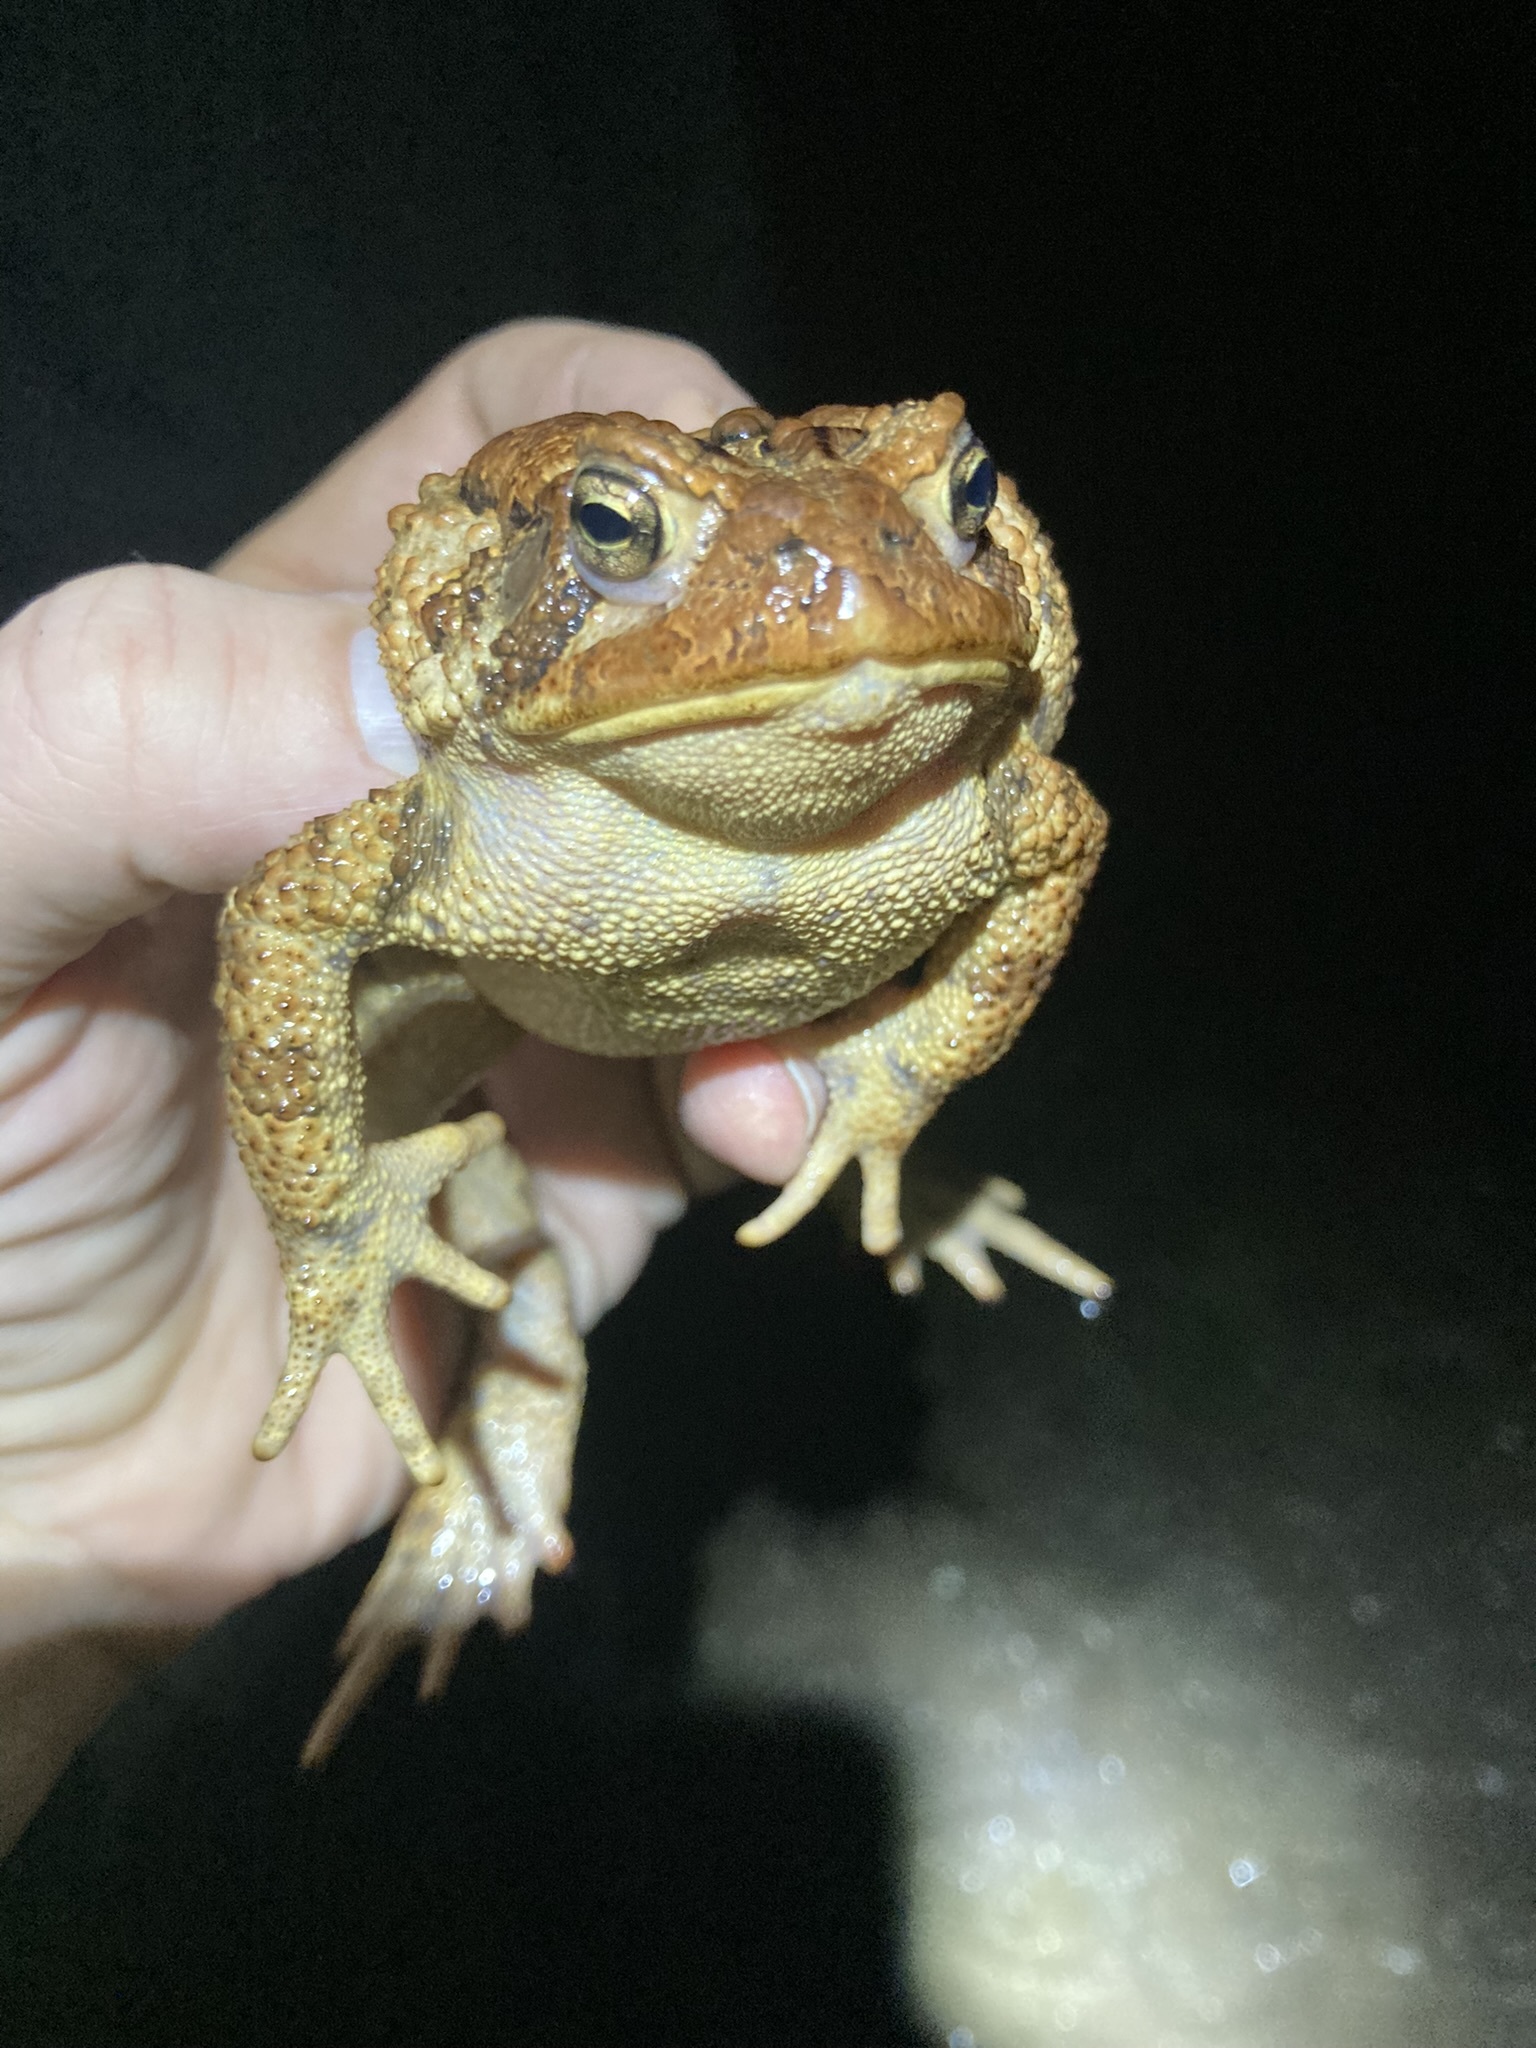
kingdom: Animalia
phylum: Chordata
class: Amphibia
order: Anura
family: Bufonidae
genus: Anaxyrus
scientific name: Anaxyrus americanus
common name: American toad
